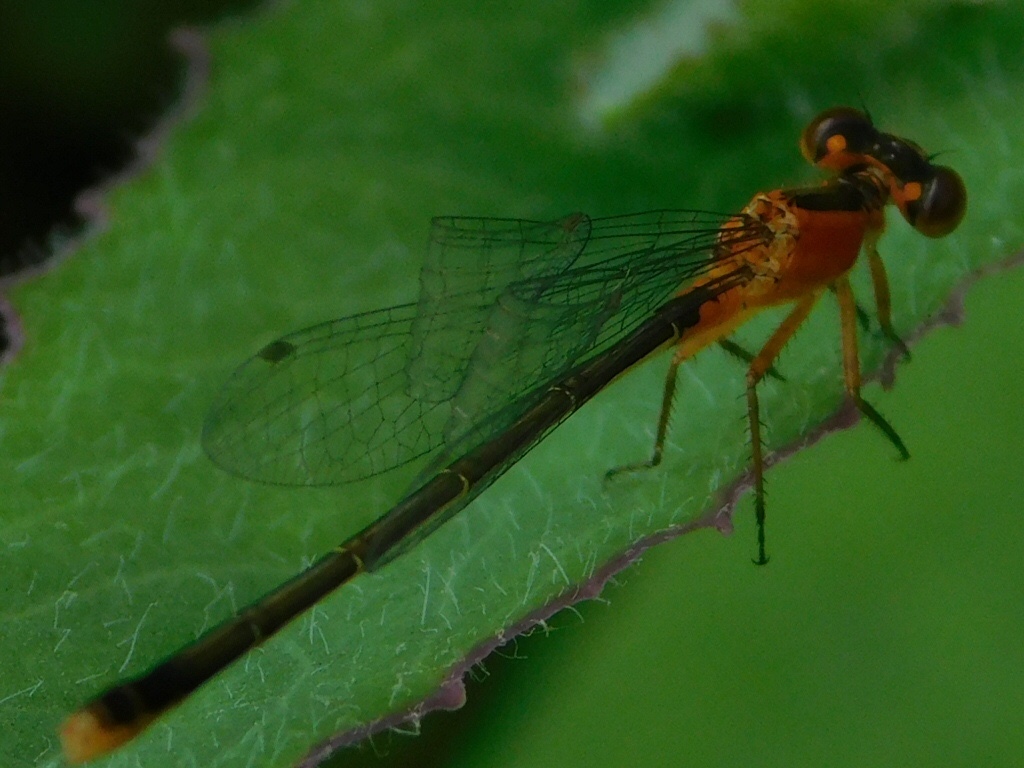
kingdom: Animalia
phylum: Arthropoda
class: Insecta
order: Odonata
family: Coenagrionidae
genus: Ischnura
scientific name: Ischnura ramburii
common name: Rambur's forktail
